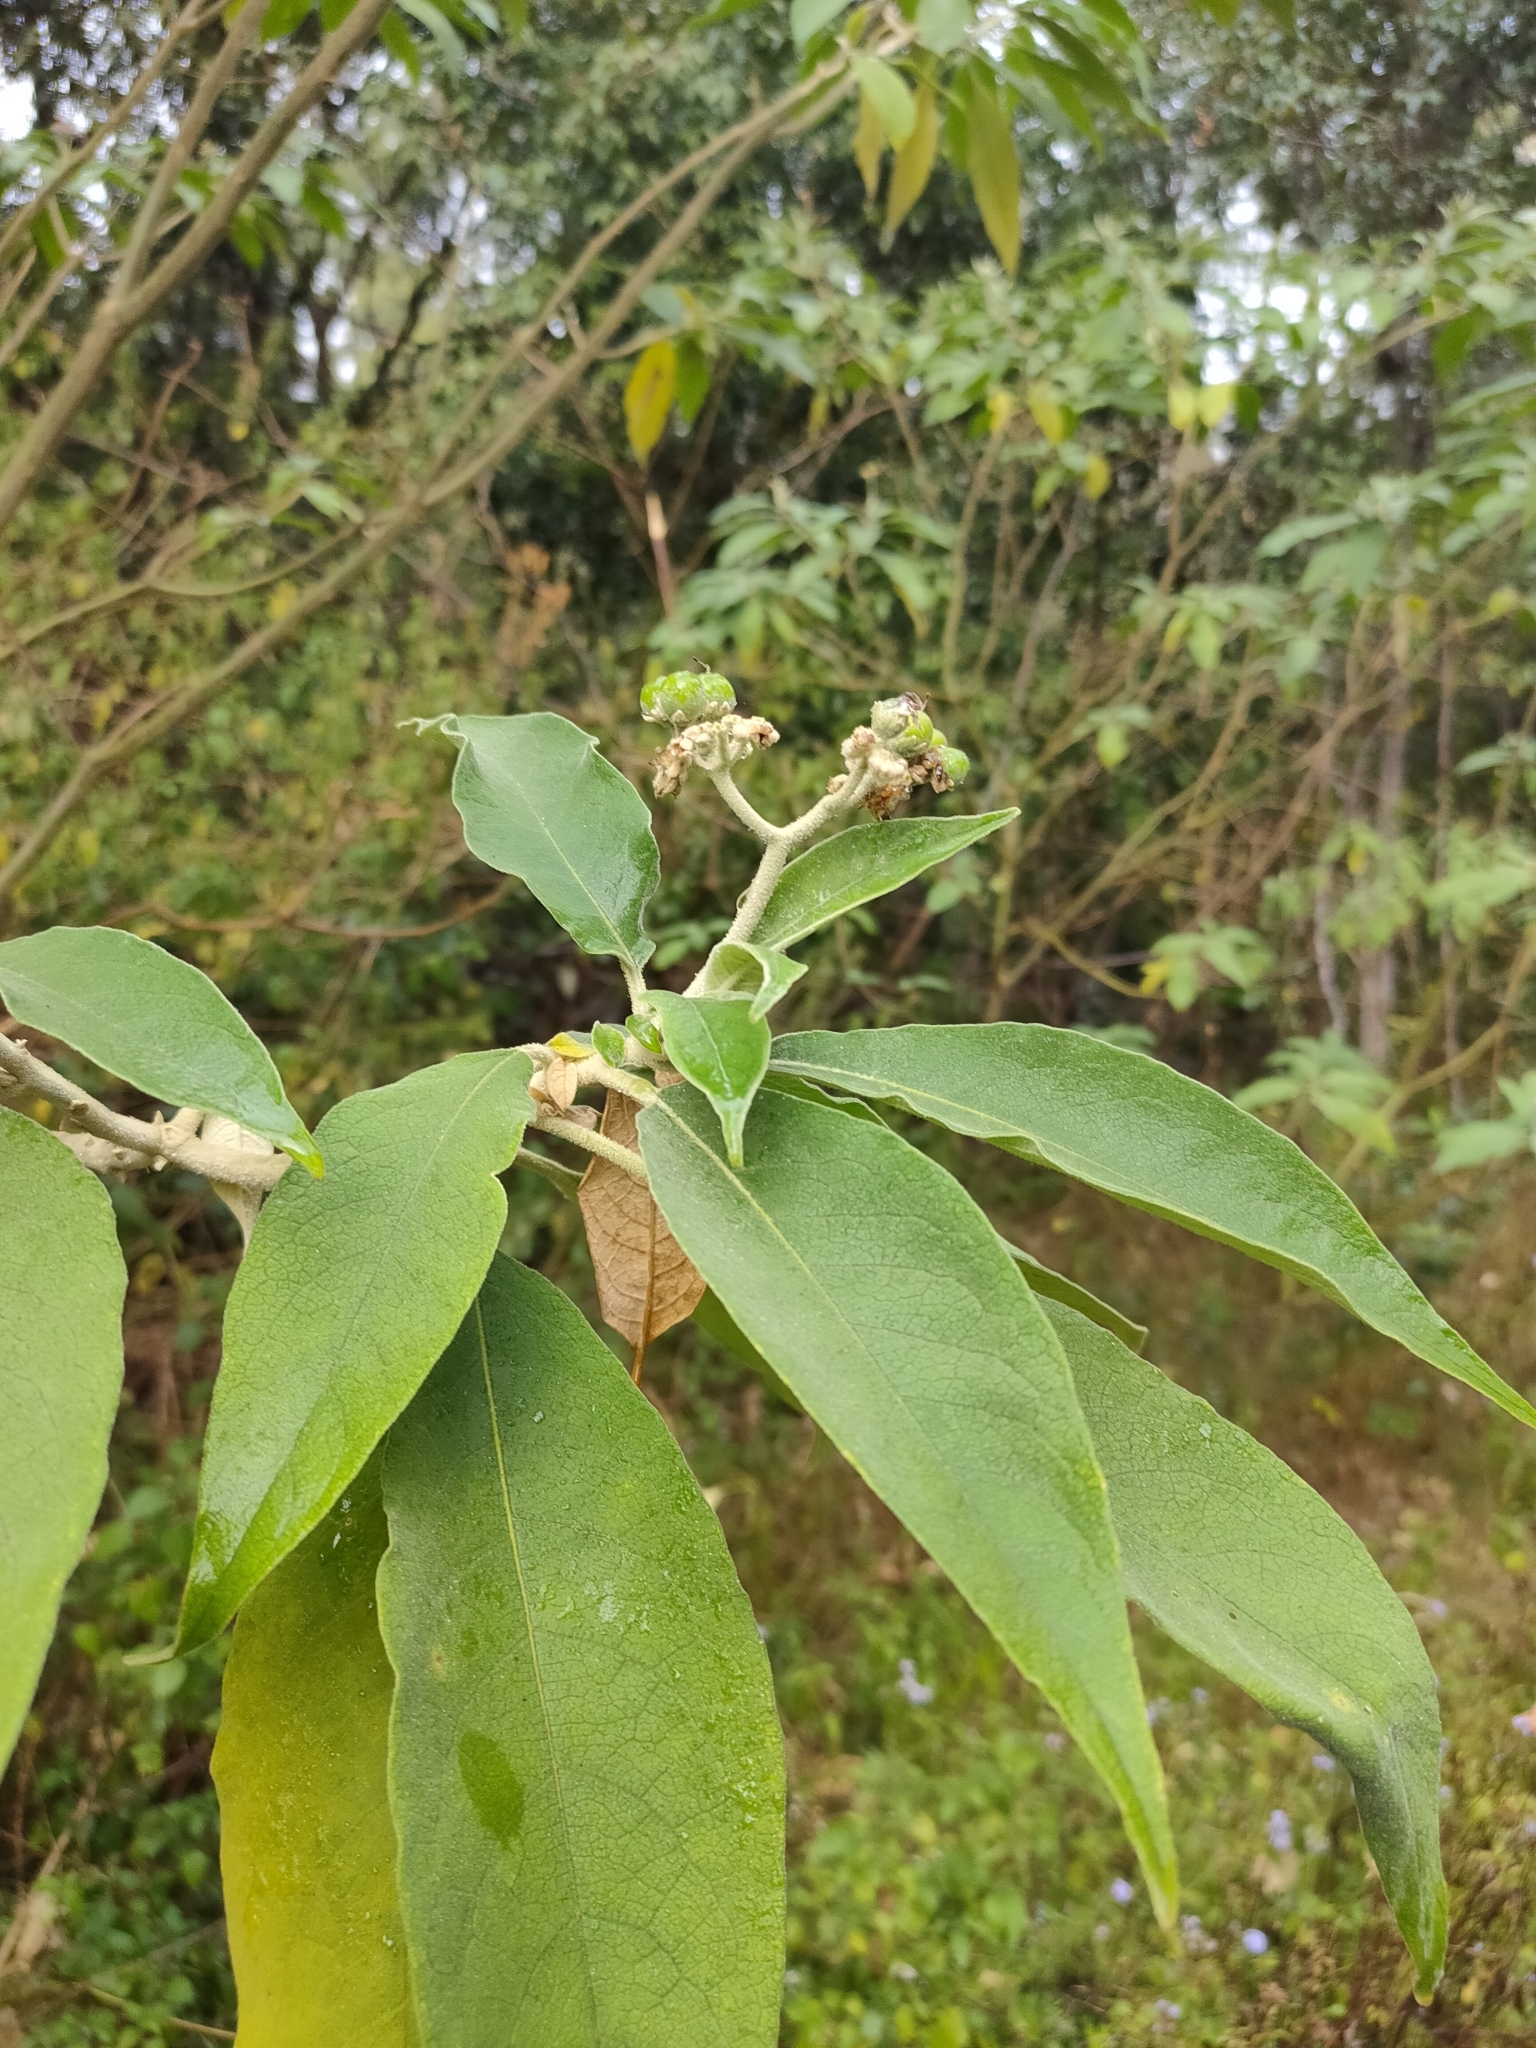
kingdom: Plantae
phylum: Tracheophyta
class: Magnoliopsida
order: Solanales
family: Solanaceae
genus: Solanum
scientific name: Solanum mauritianum
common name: Earleaf nightshade
